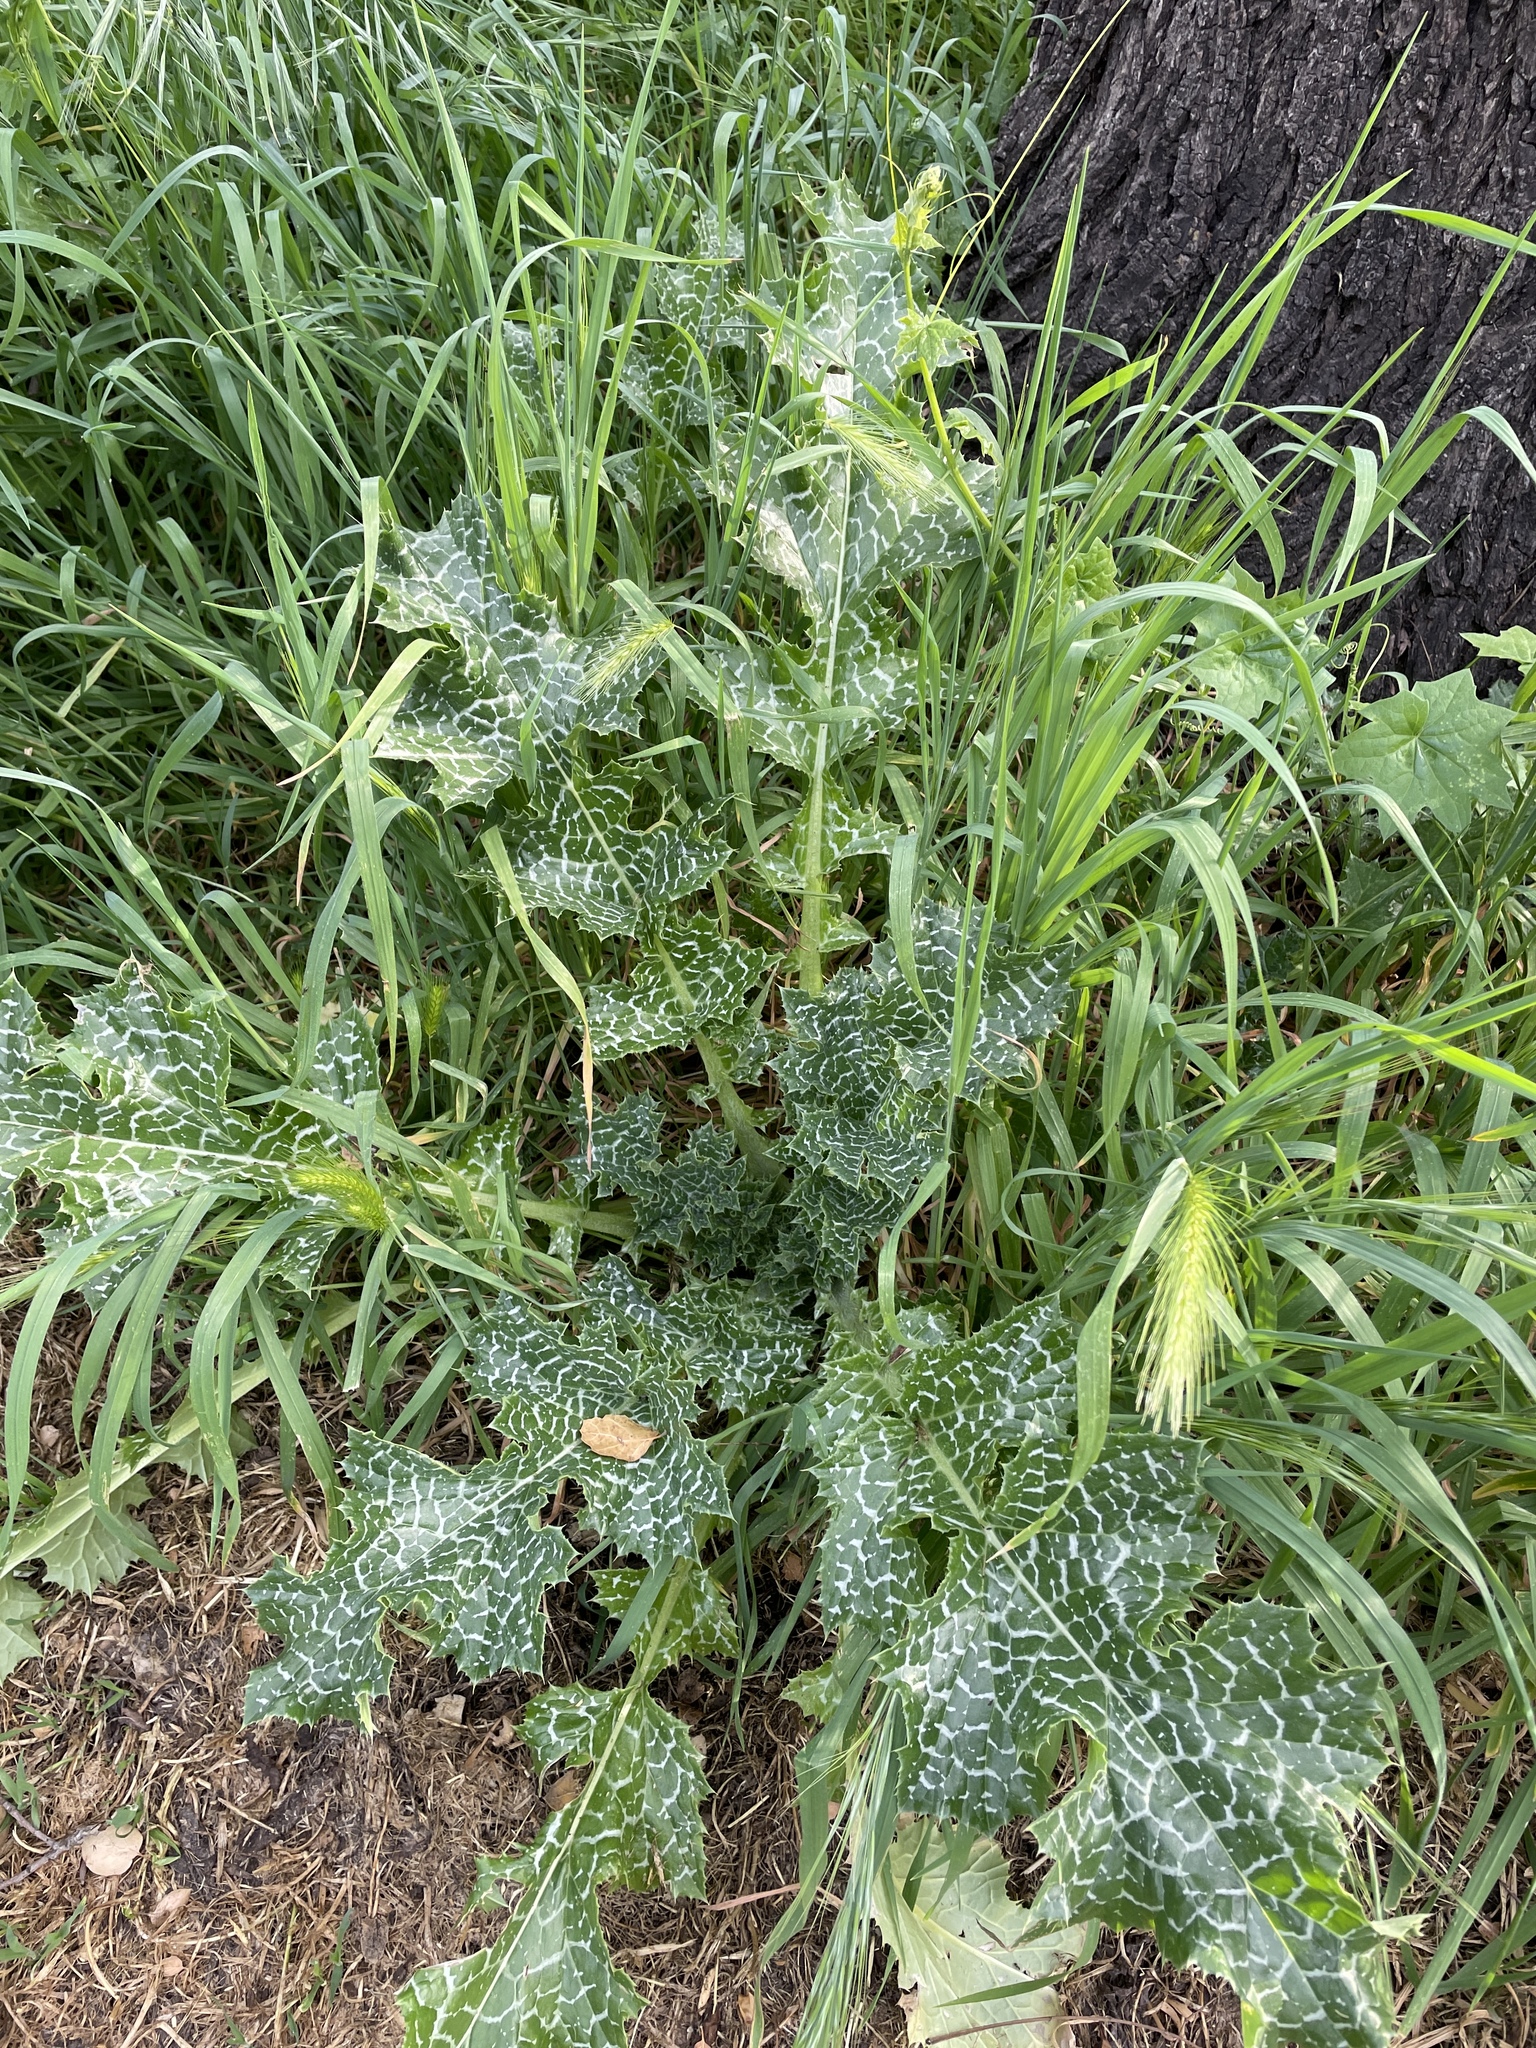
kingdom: Plantae
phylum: Tracheophyta
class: Magnoliopsida
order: Asterales
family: Asteraceae
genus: Silybum
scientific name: Silybum marianum
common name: Milk thistle
